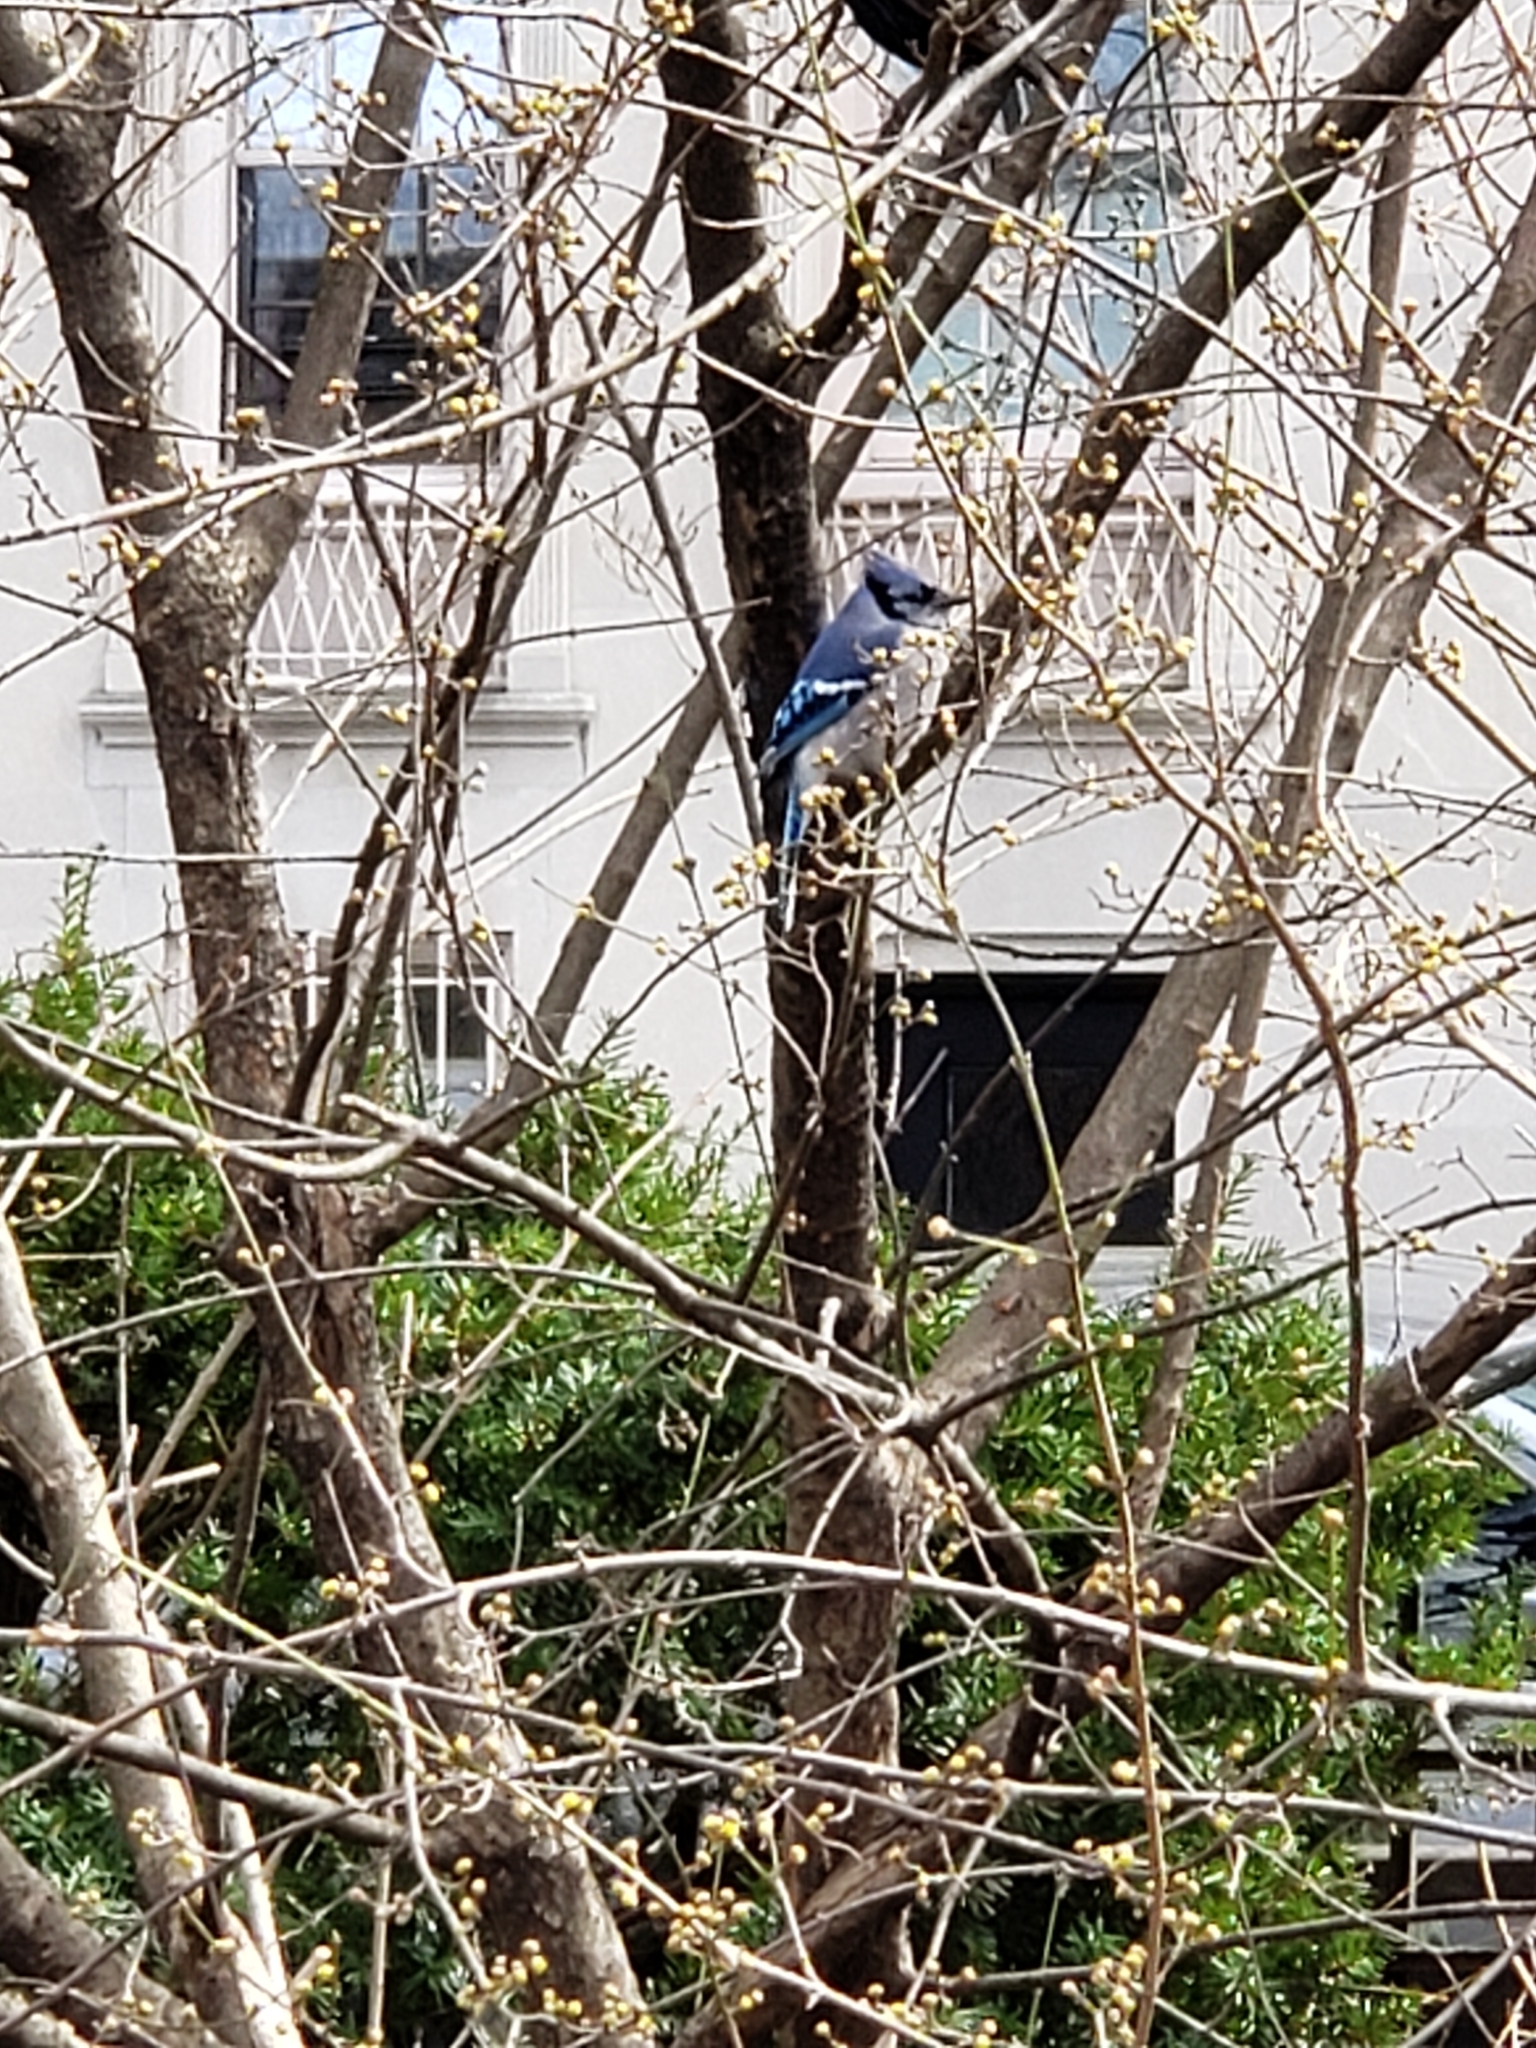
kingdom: Animalia
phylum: Chordata
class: Aves
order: Passeriformes
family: Corvidae
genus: Cyanocitta
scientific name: Cyanocitta cristata
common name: Blue jay
